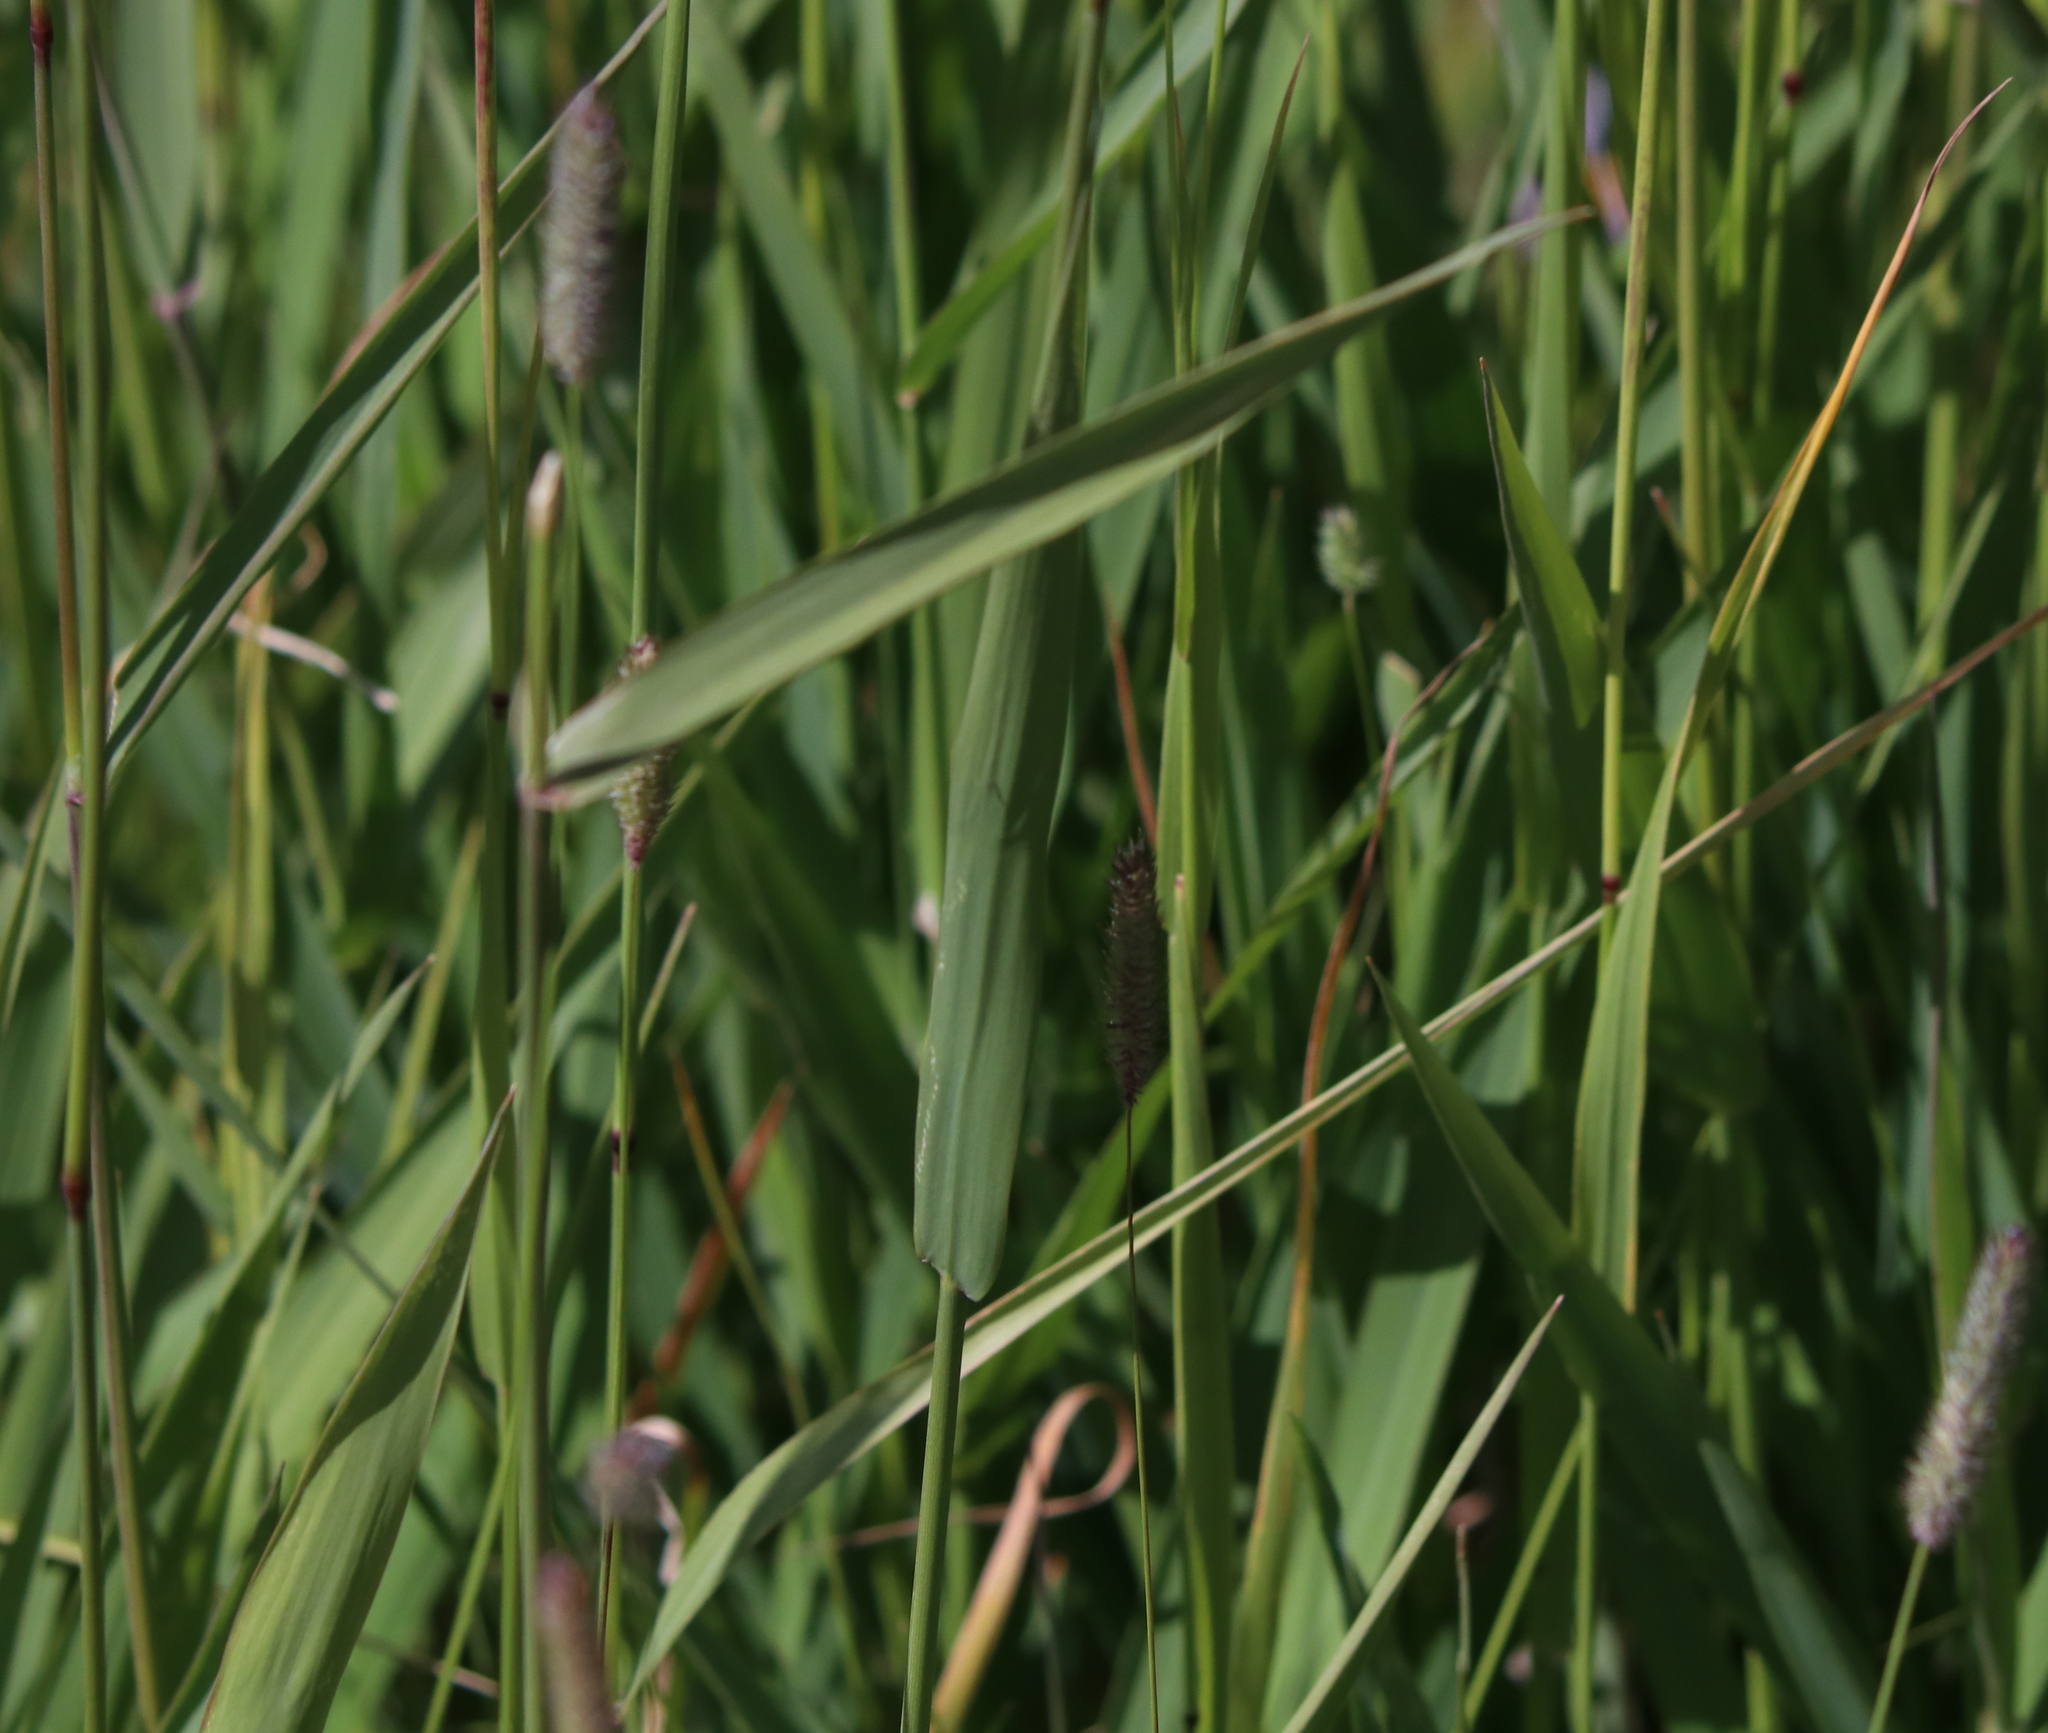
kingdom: Plantae
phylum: Tracheophyta
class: Liliopsida
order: Poales
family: Poaceae
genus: Phalaris
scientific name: Phalaris arundinacea
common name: Reed canary-grass
